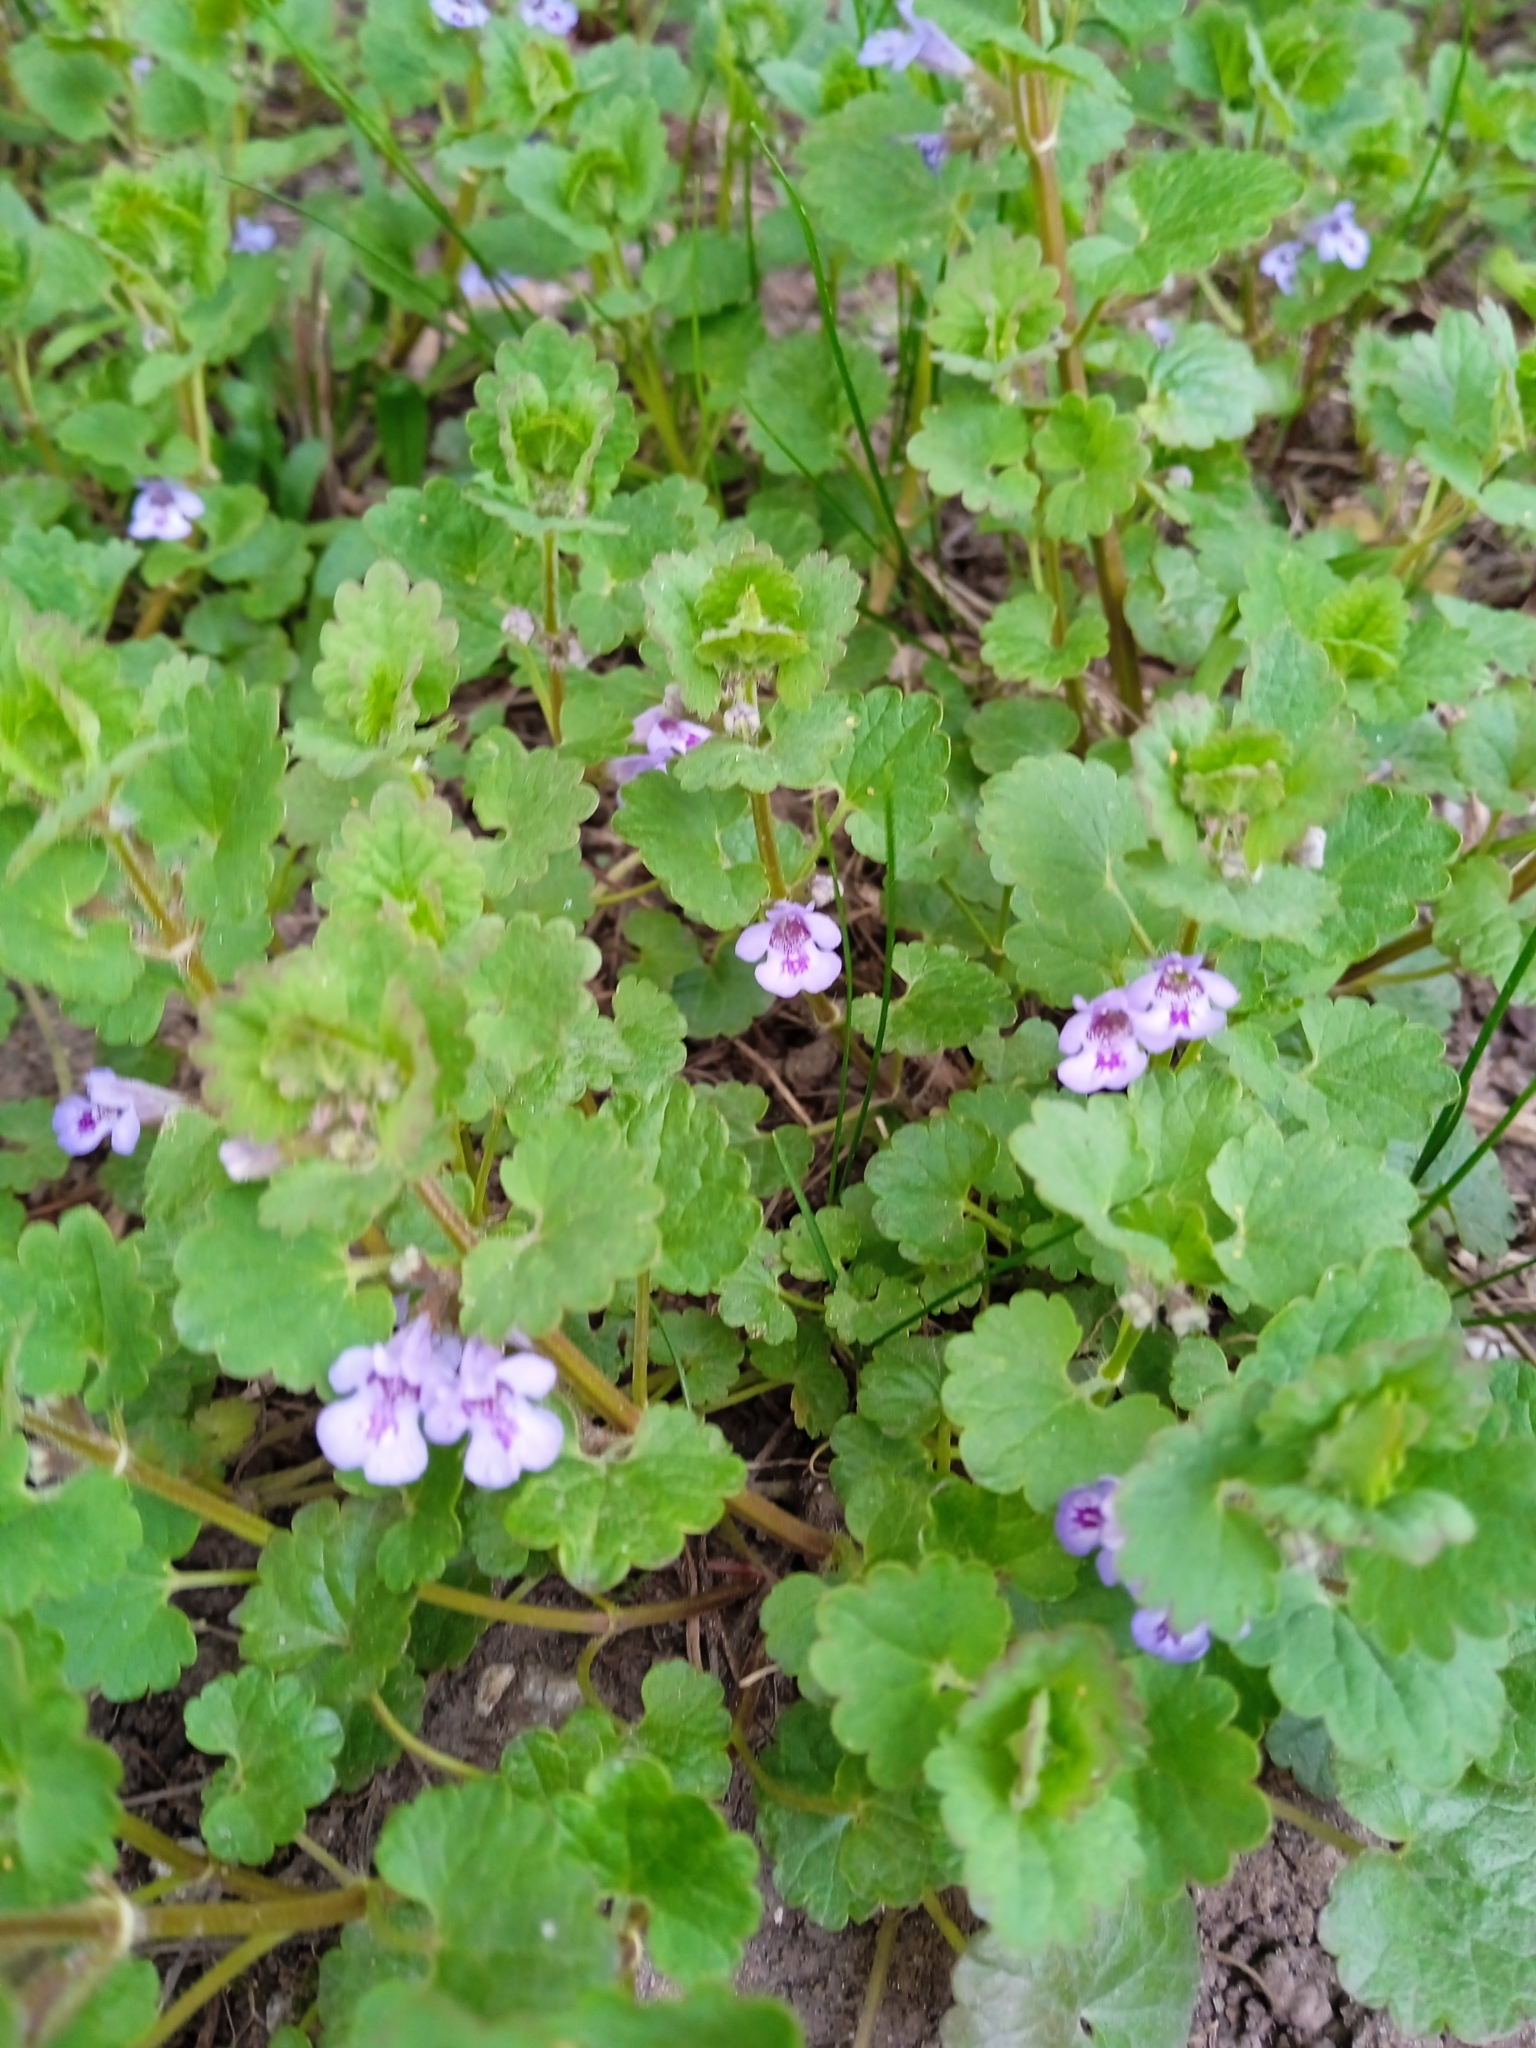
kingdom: Plantae
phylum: Tracheophyta
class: Magnoliopsida
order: Lamiales
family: Lamiaceae
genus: Glechoma
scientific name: Glechoma hederacea
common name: Ground ivy
